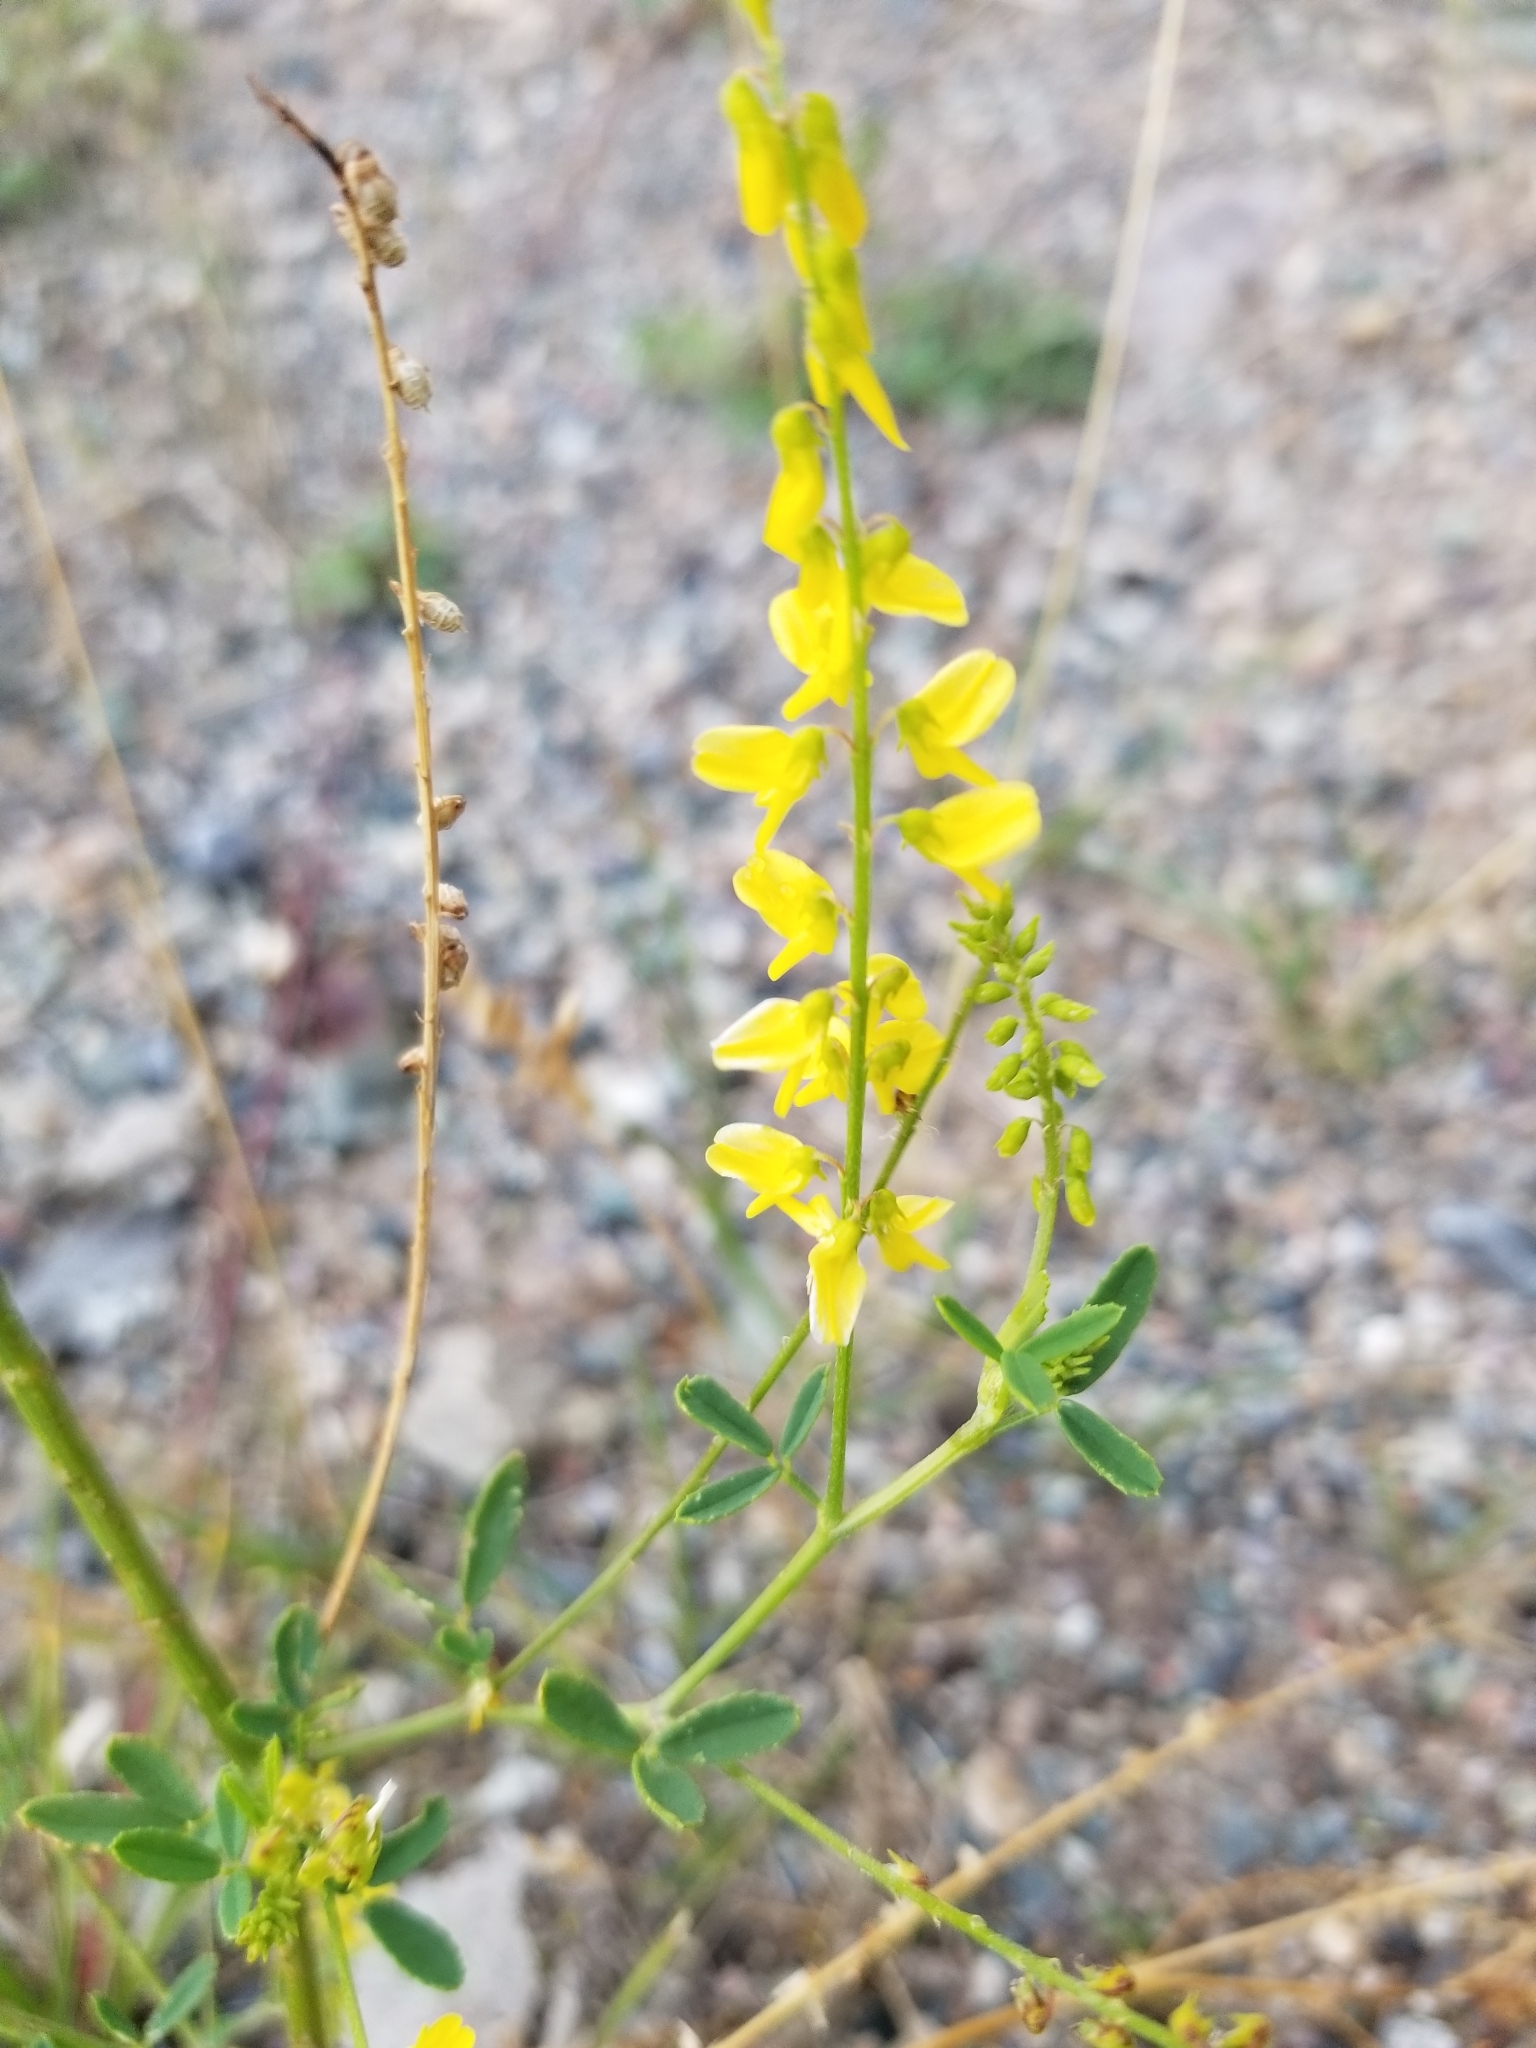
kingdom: Plantae
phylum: Tracheophyta
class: Magnoliopsida
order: Fabales
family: Fabaceae
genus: Melilotus
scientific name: Melilotus officinalis
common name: Sweetclover
